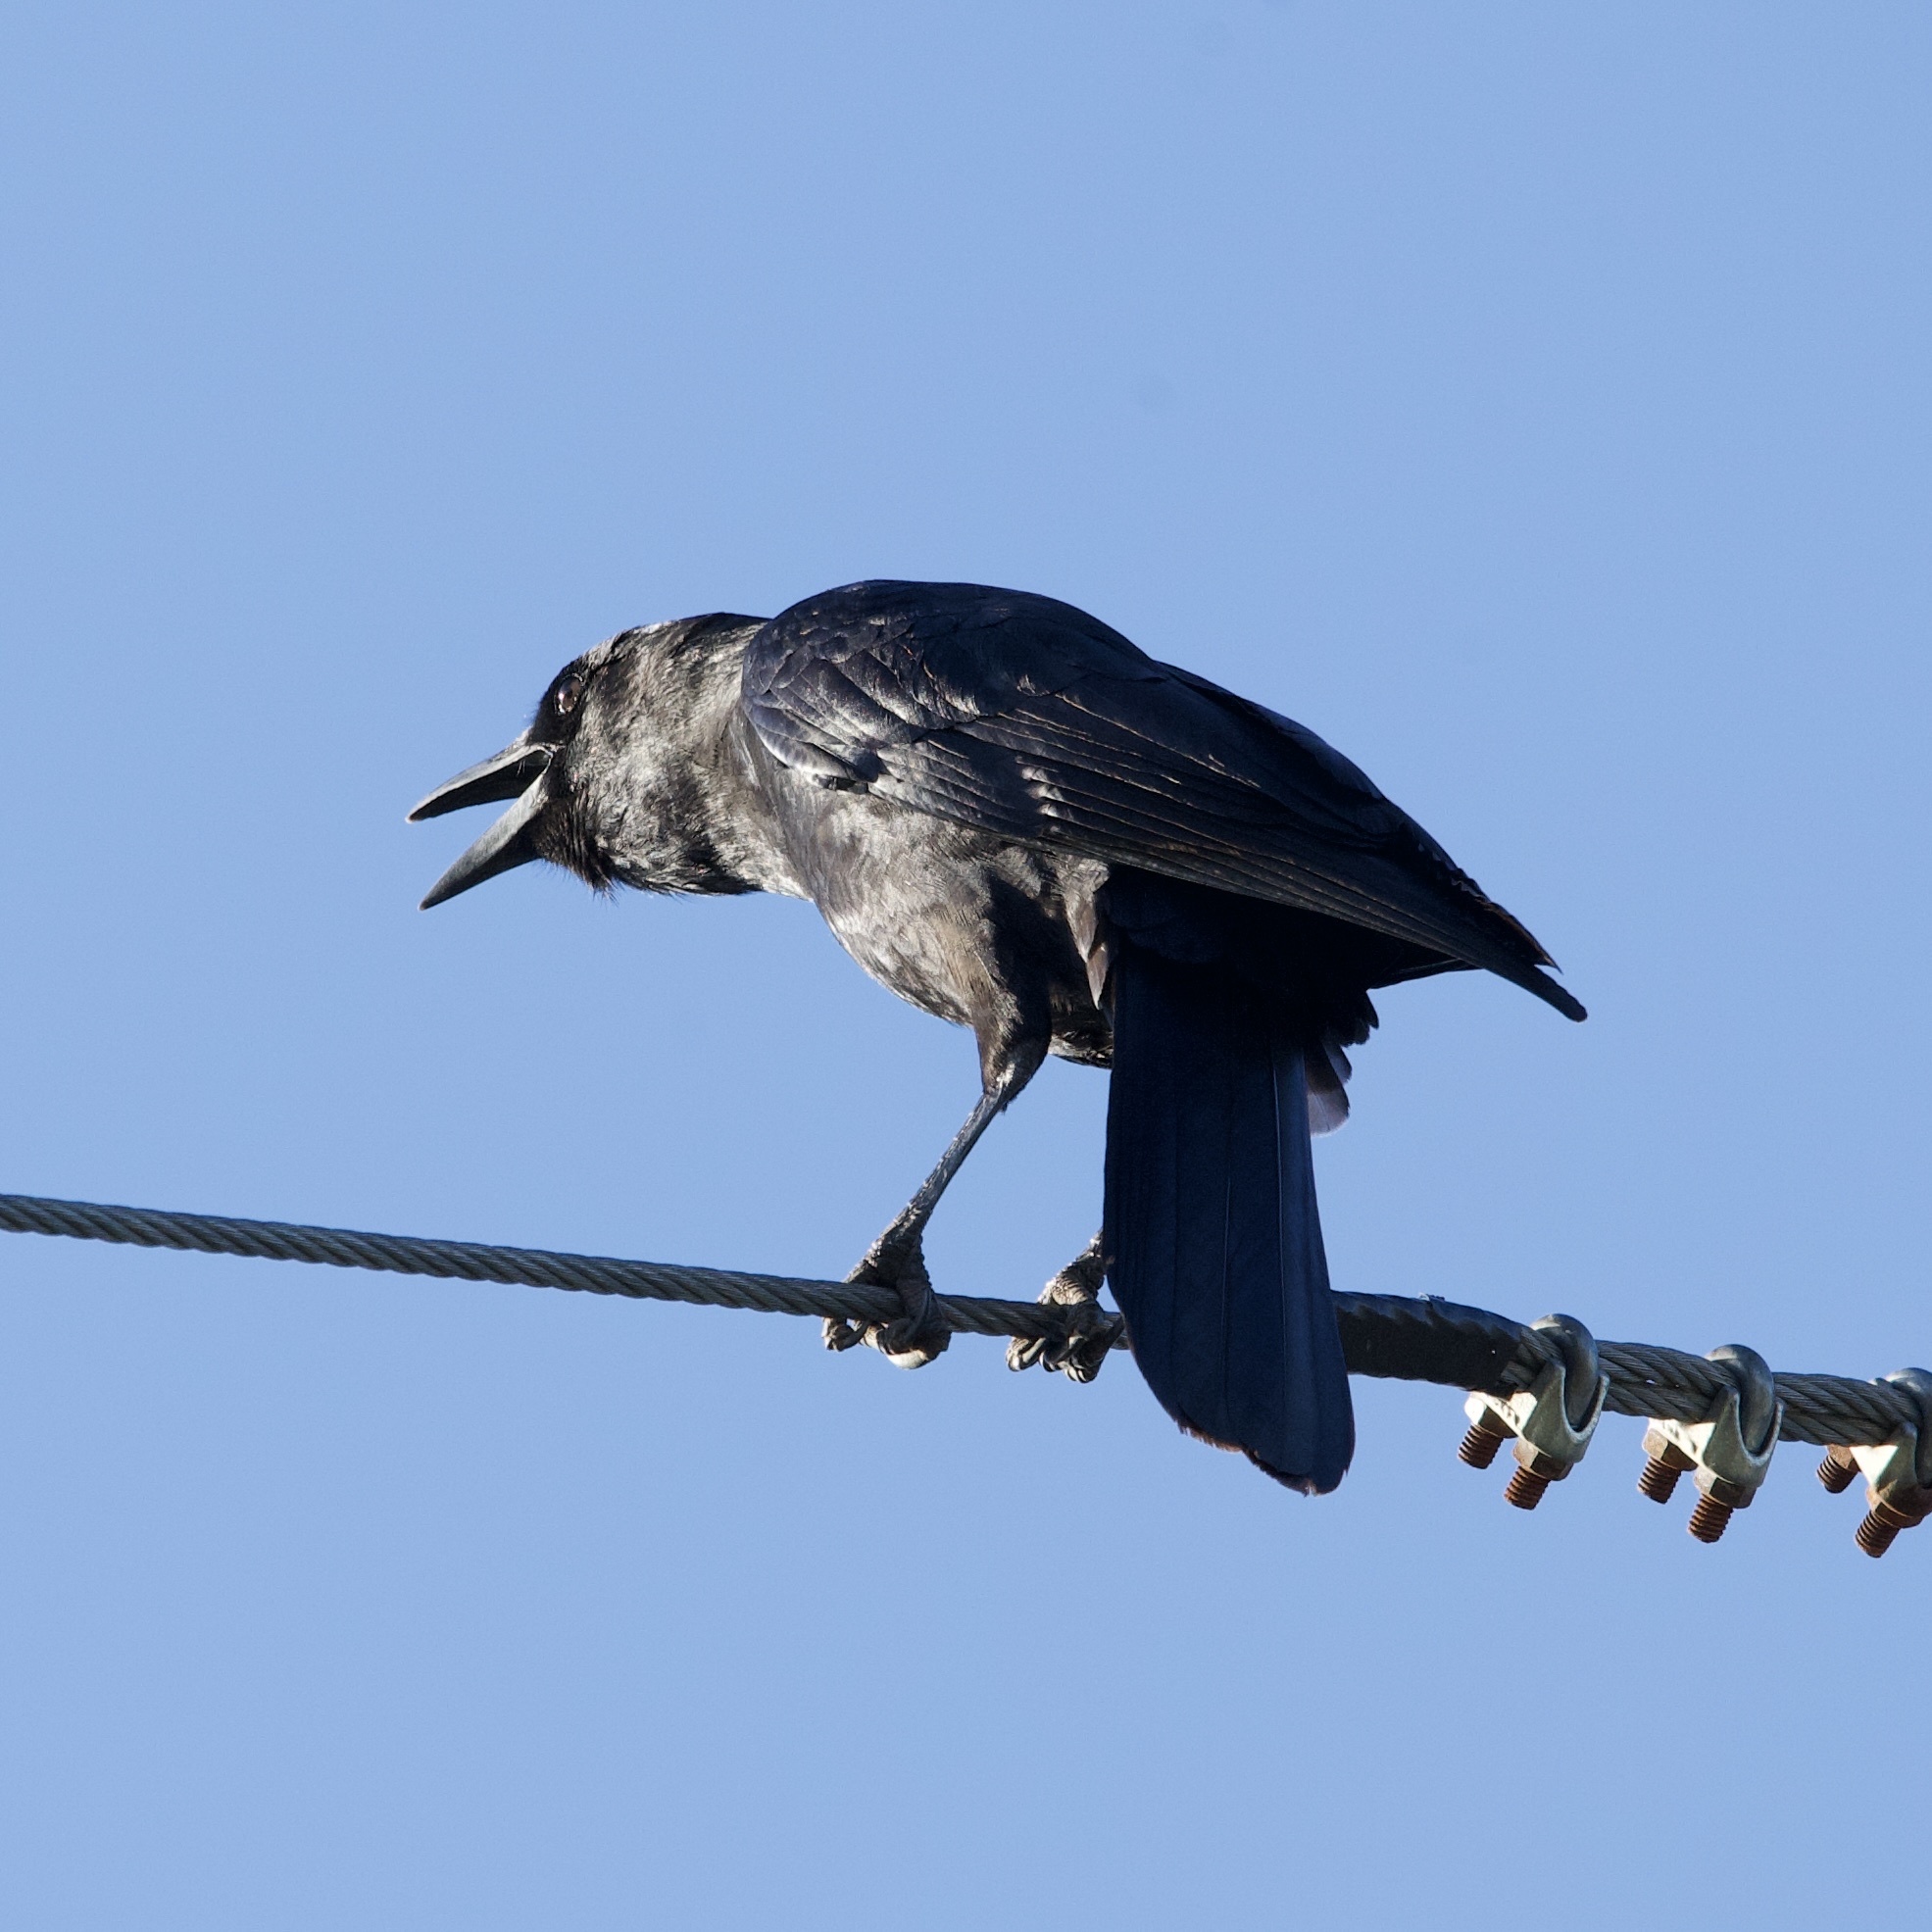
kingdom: Animalia
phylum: Chordata
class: Aves
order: Passeriformes
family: Corvidae
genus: Corvus
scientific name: Corvus brachyrhynchos
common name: American crow
